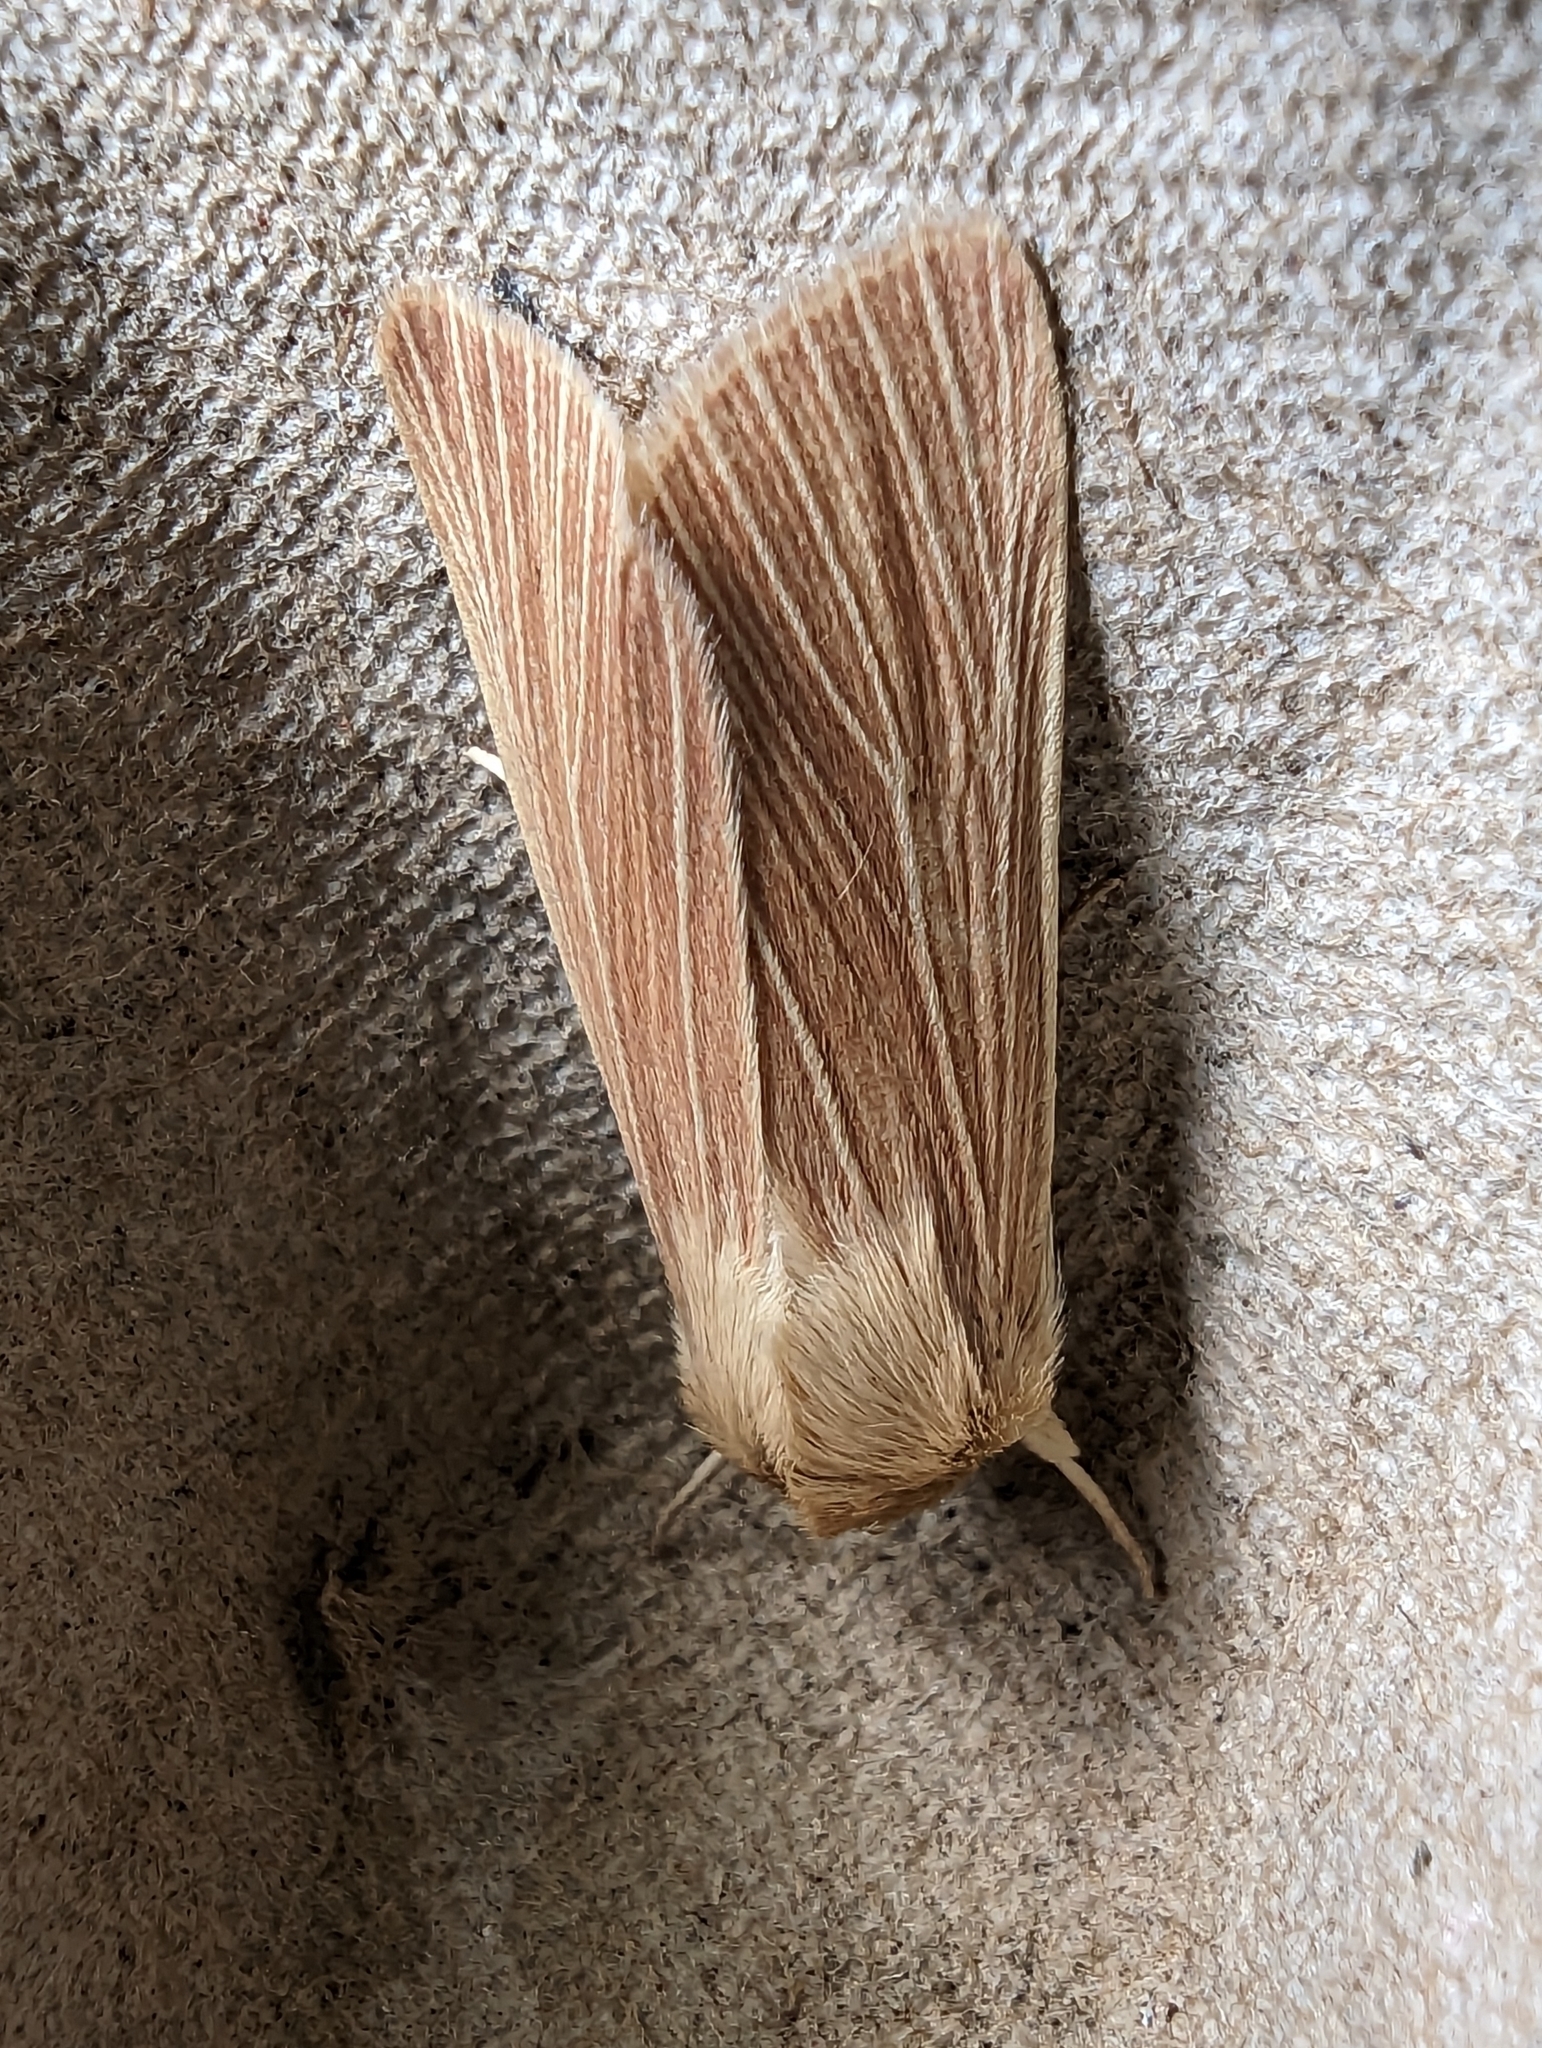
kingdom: Animalia
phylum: Arthropoda
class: Insecta
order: Lepidoptera
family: Noctuidae
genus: Mythimna
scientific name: Mythimna pallens
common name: Common wainscot
